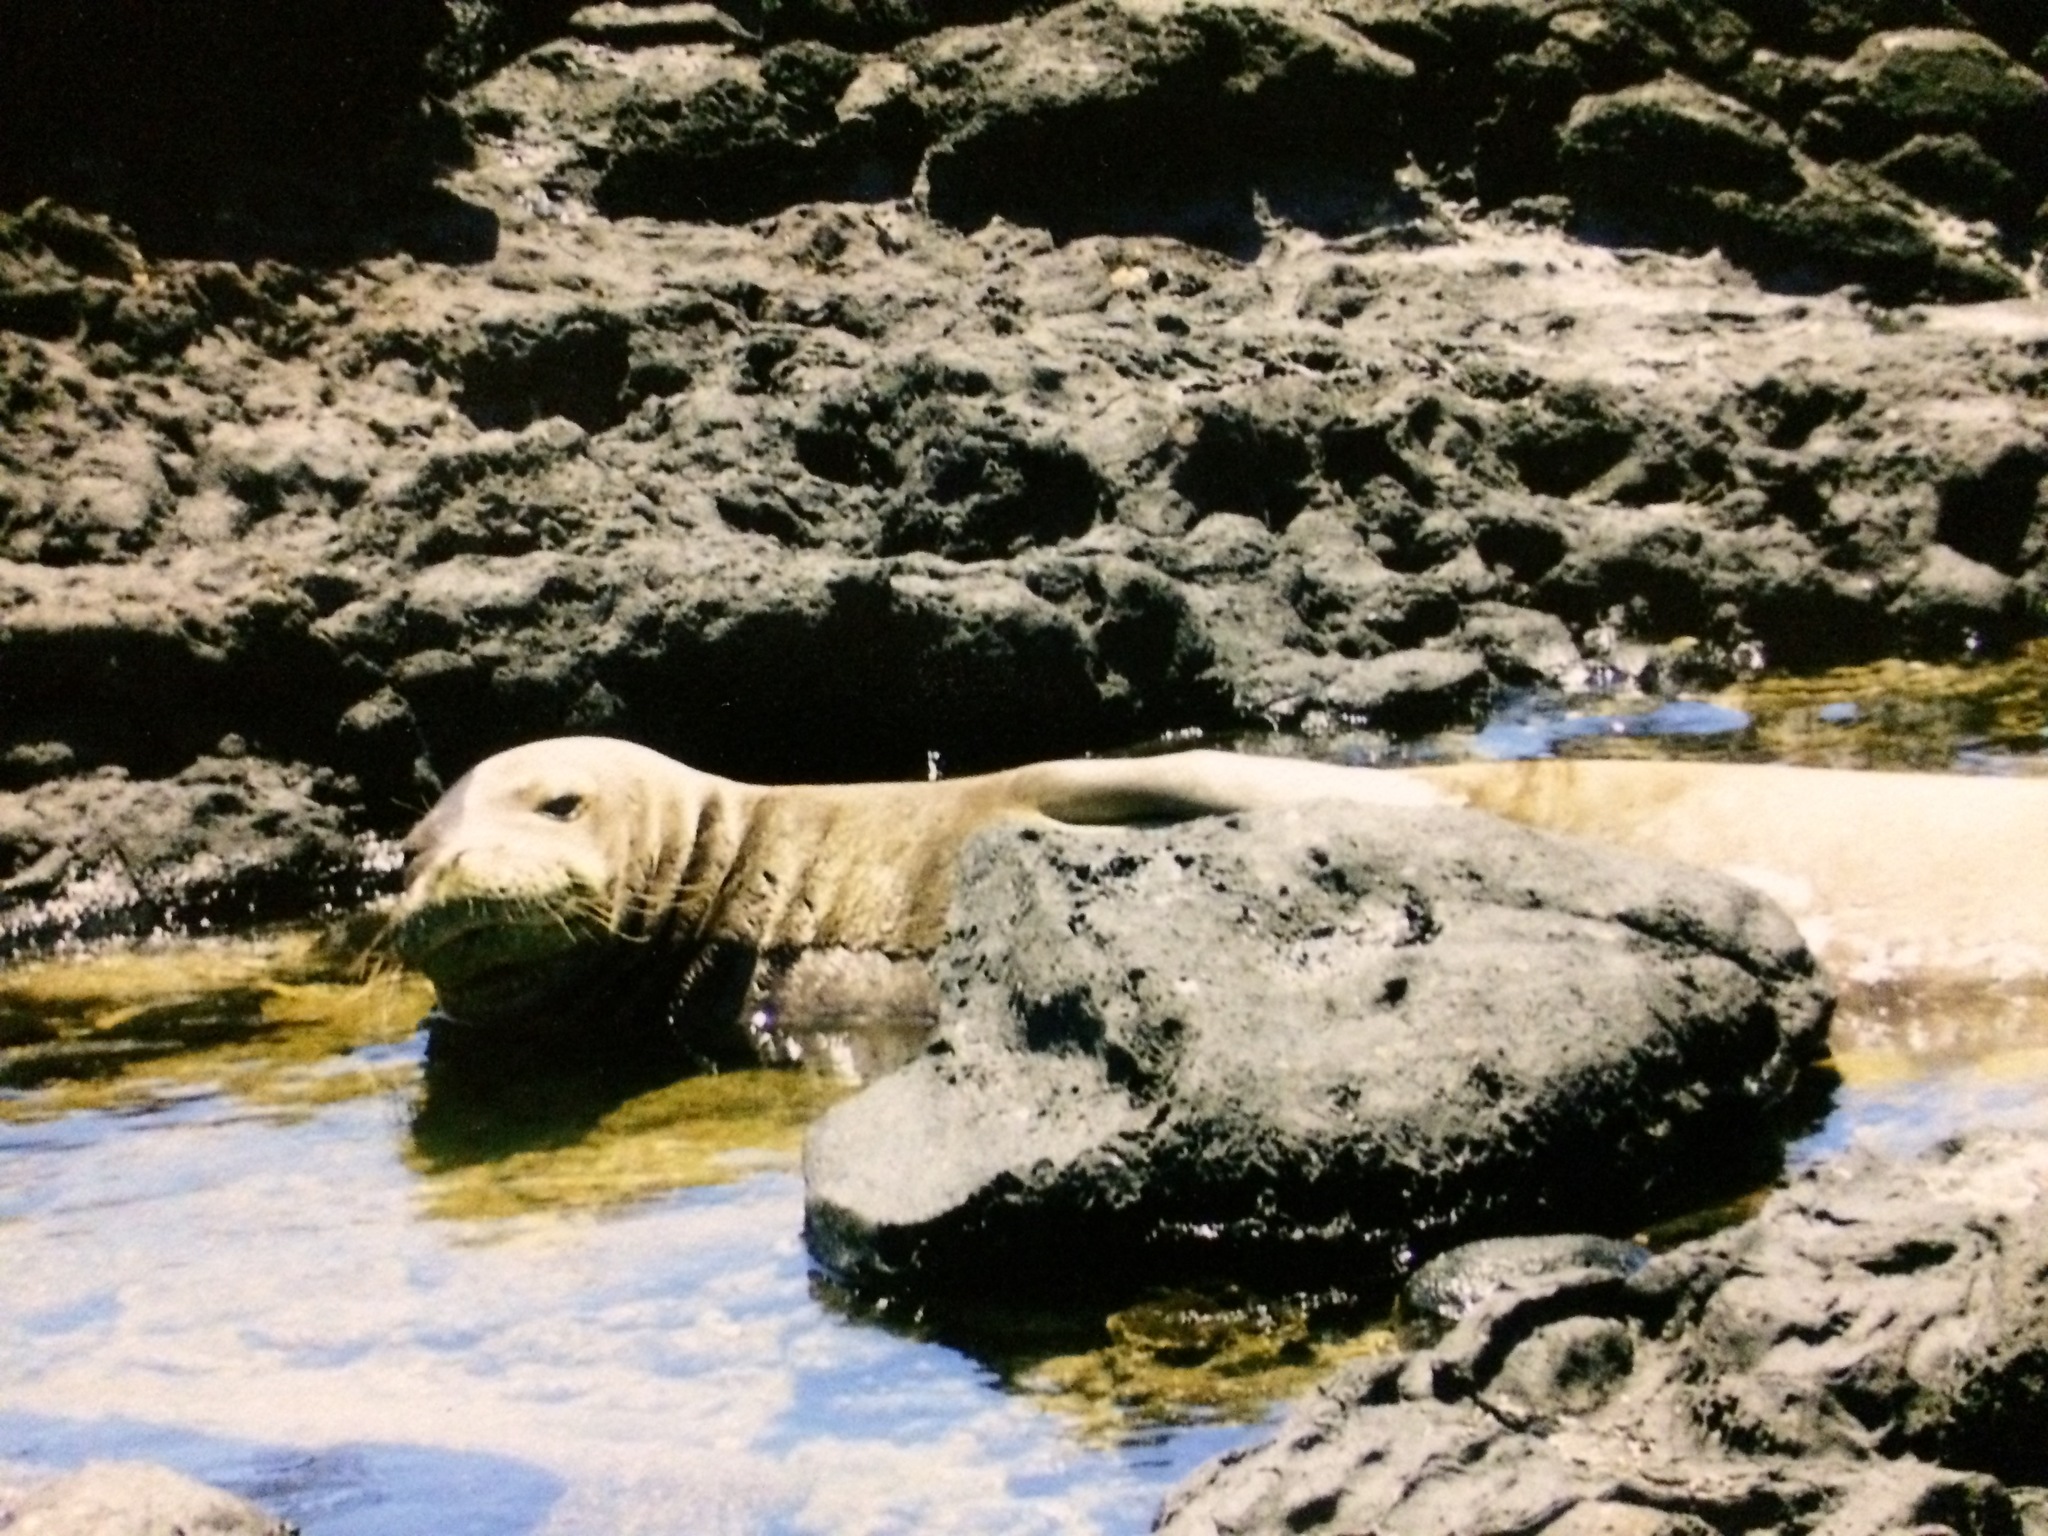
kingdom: Animalia
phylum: Chordata
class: Mammalia
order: Carnivora
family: Phocidae
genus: Neomonachus
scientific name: Neomonachus schauinslandi
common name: Hawaiian monk seal
